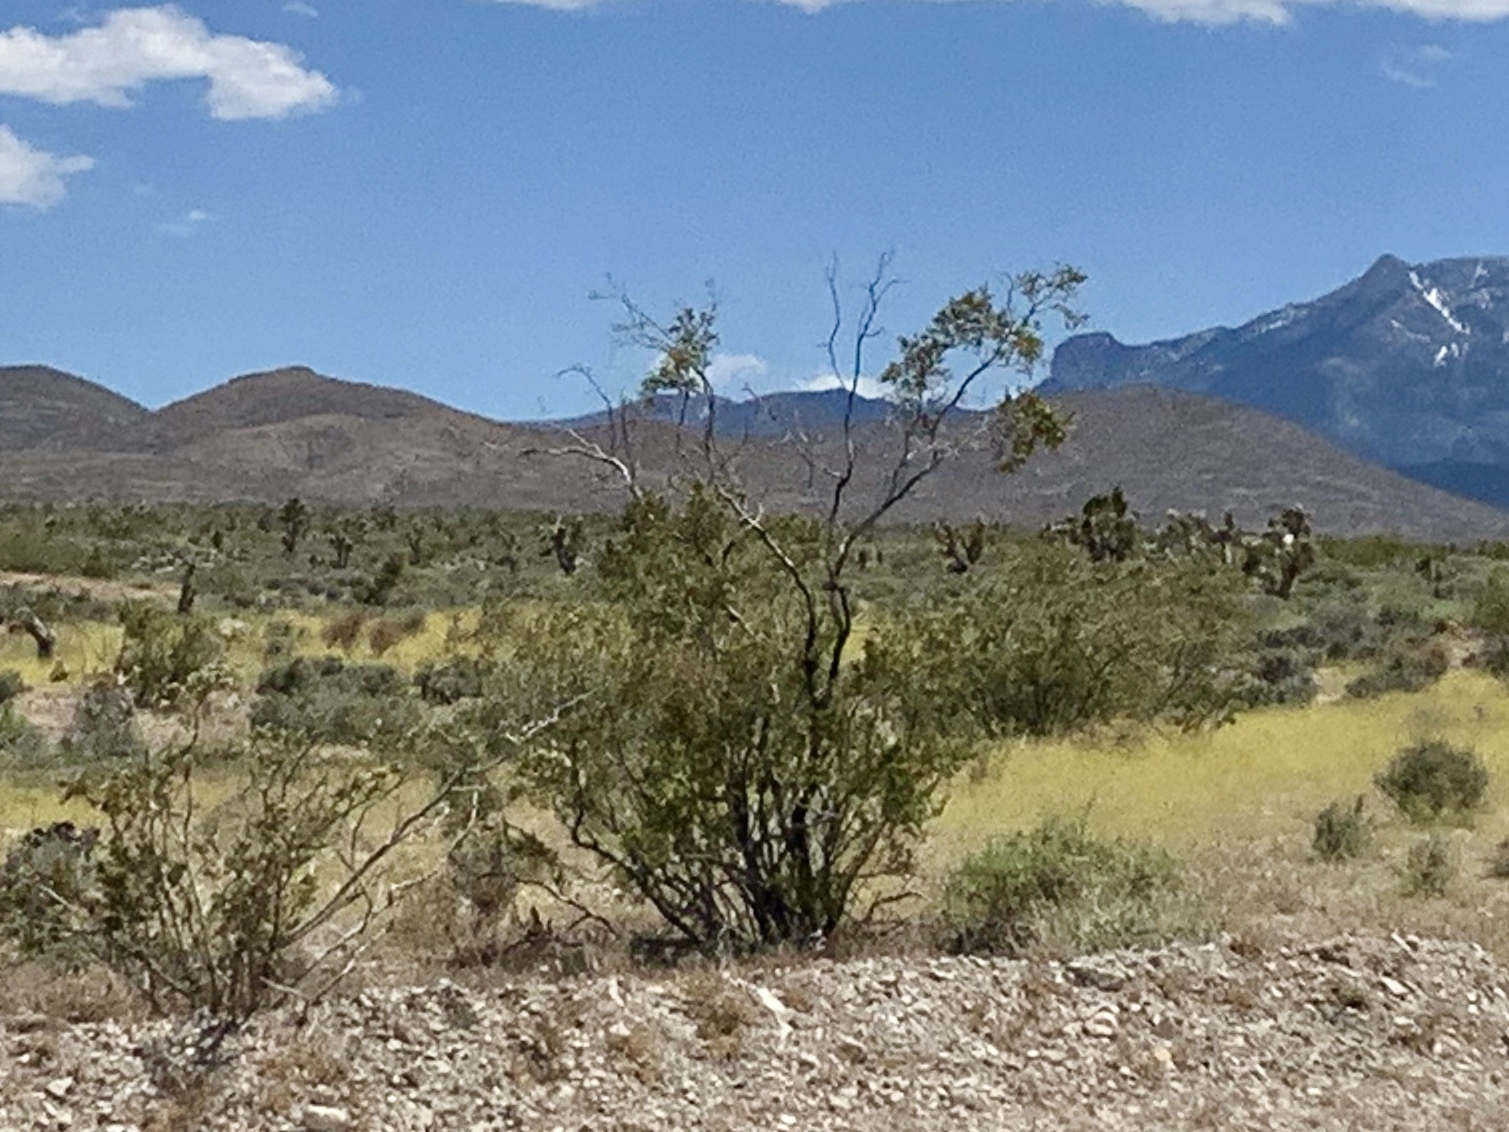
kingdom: Plantae
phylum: Tracheophyta
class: Magnoliopsida
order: Zygophyllales
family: Zygophyllaceae
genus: Larrea
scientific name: Larrea tridentata
